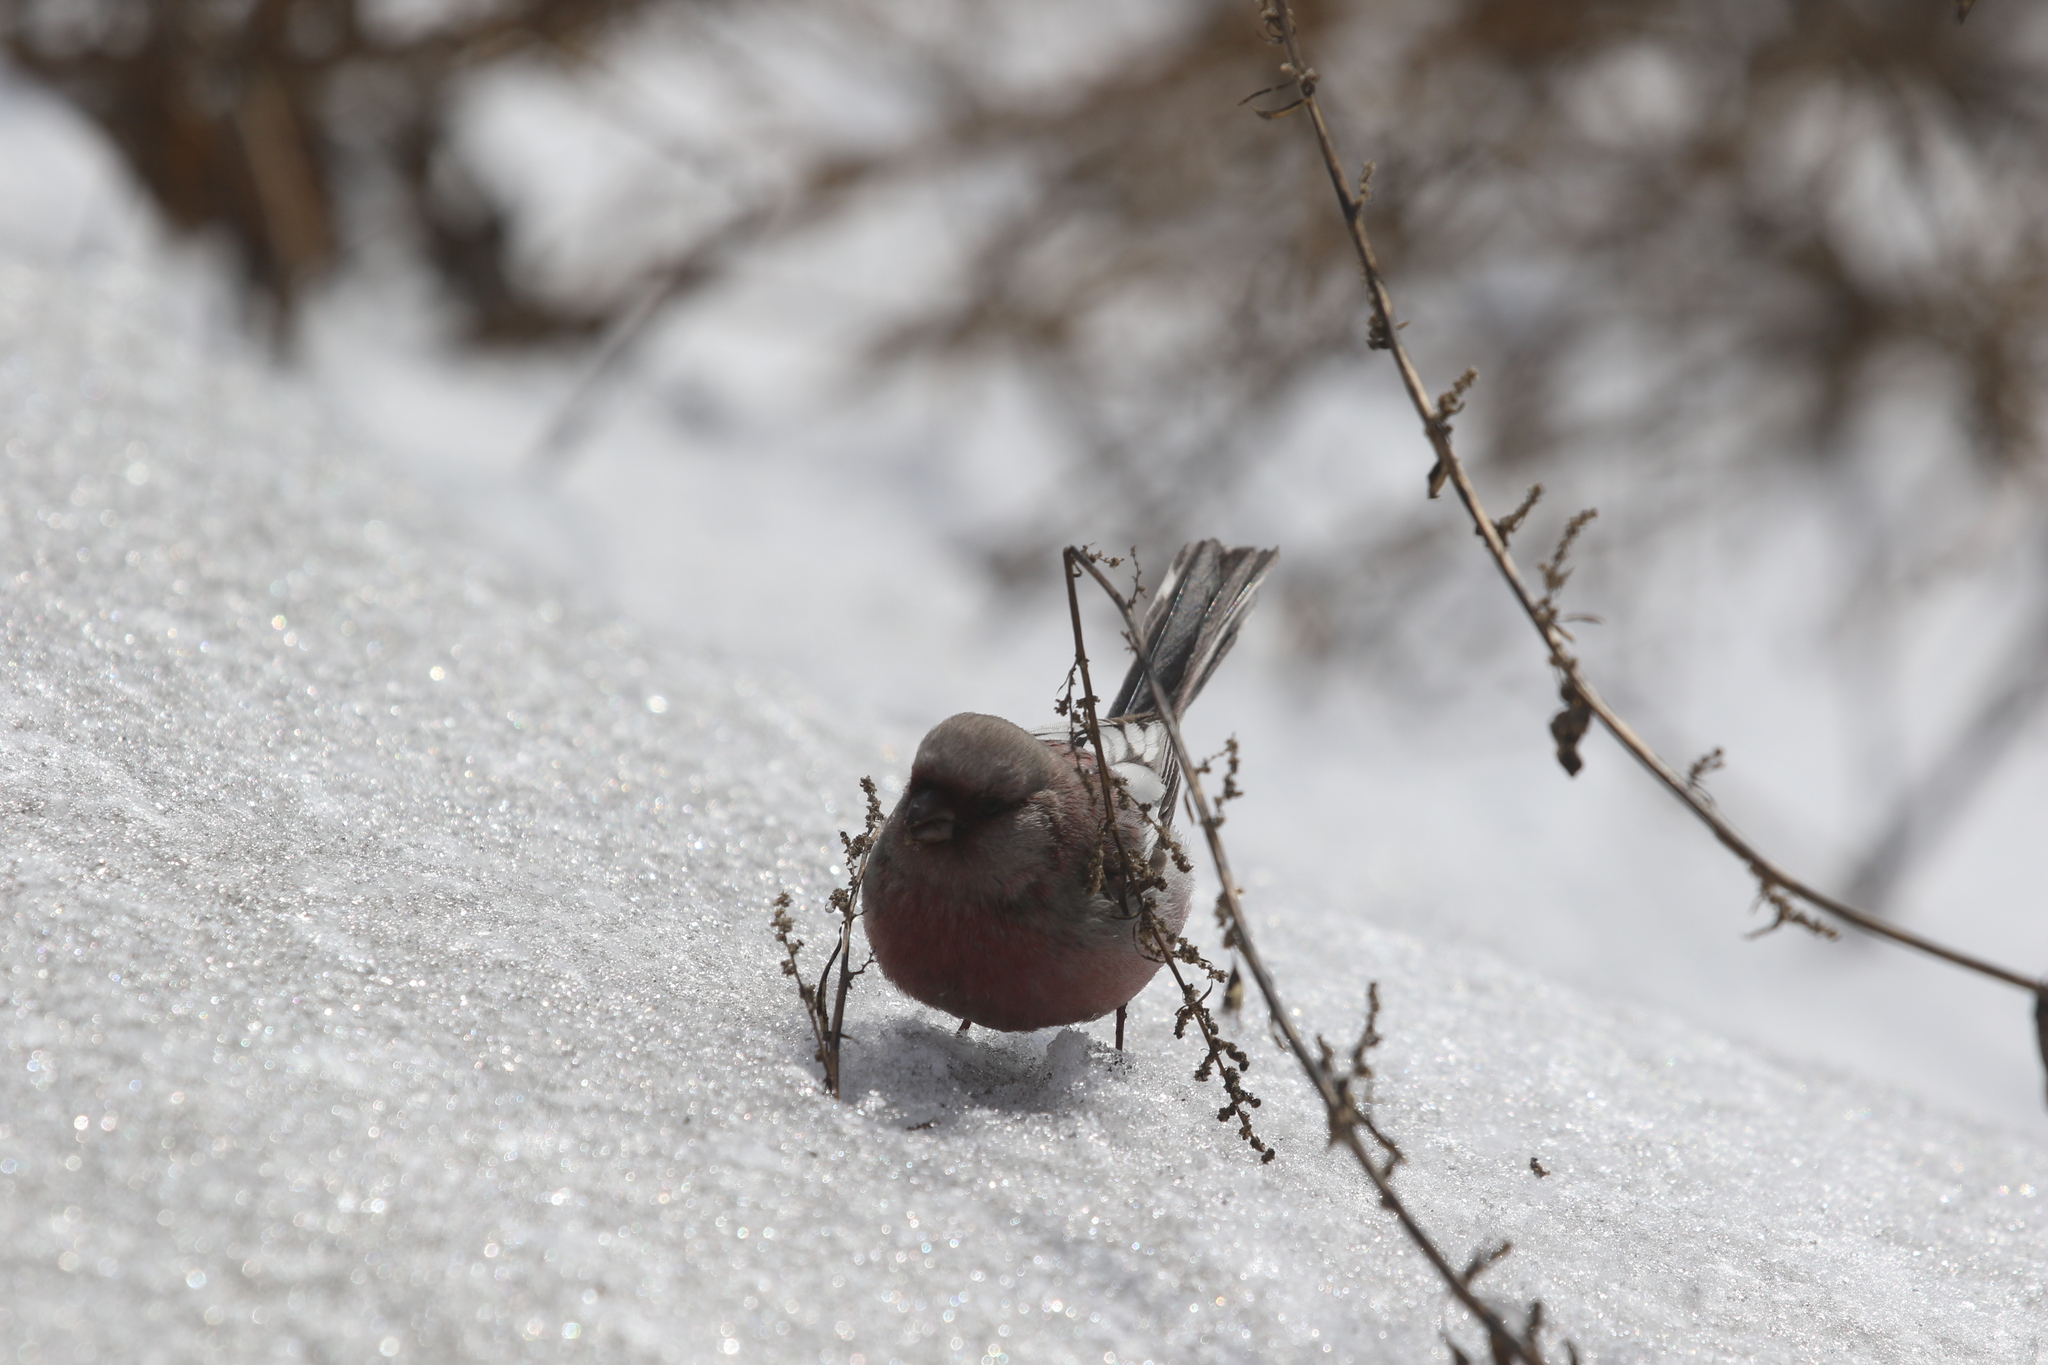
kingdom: Animalia
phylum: Chordata
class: Aves
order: Passeriformes
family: Fringillidae
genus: Carpodacus
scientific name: Carpodacus sibiricus
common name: Long-tailed rosefinch
